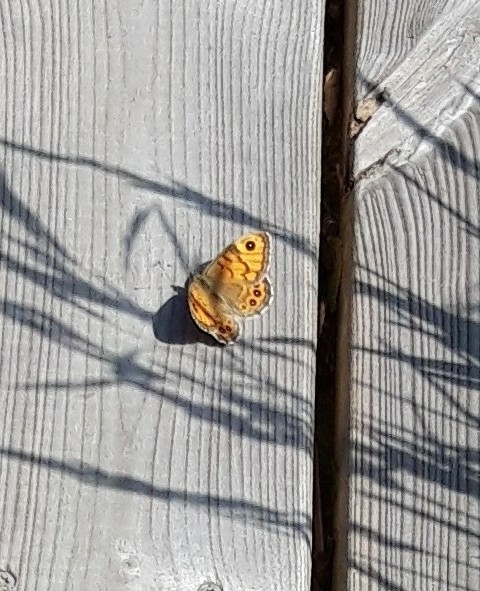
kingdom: Animalia
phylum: Arthropoda
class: Insecta
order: Lepidoptera
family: Nymphalidae
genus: Pararge
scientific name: Pararge Lasiommata megera
